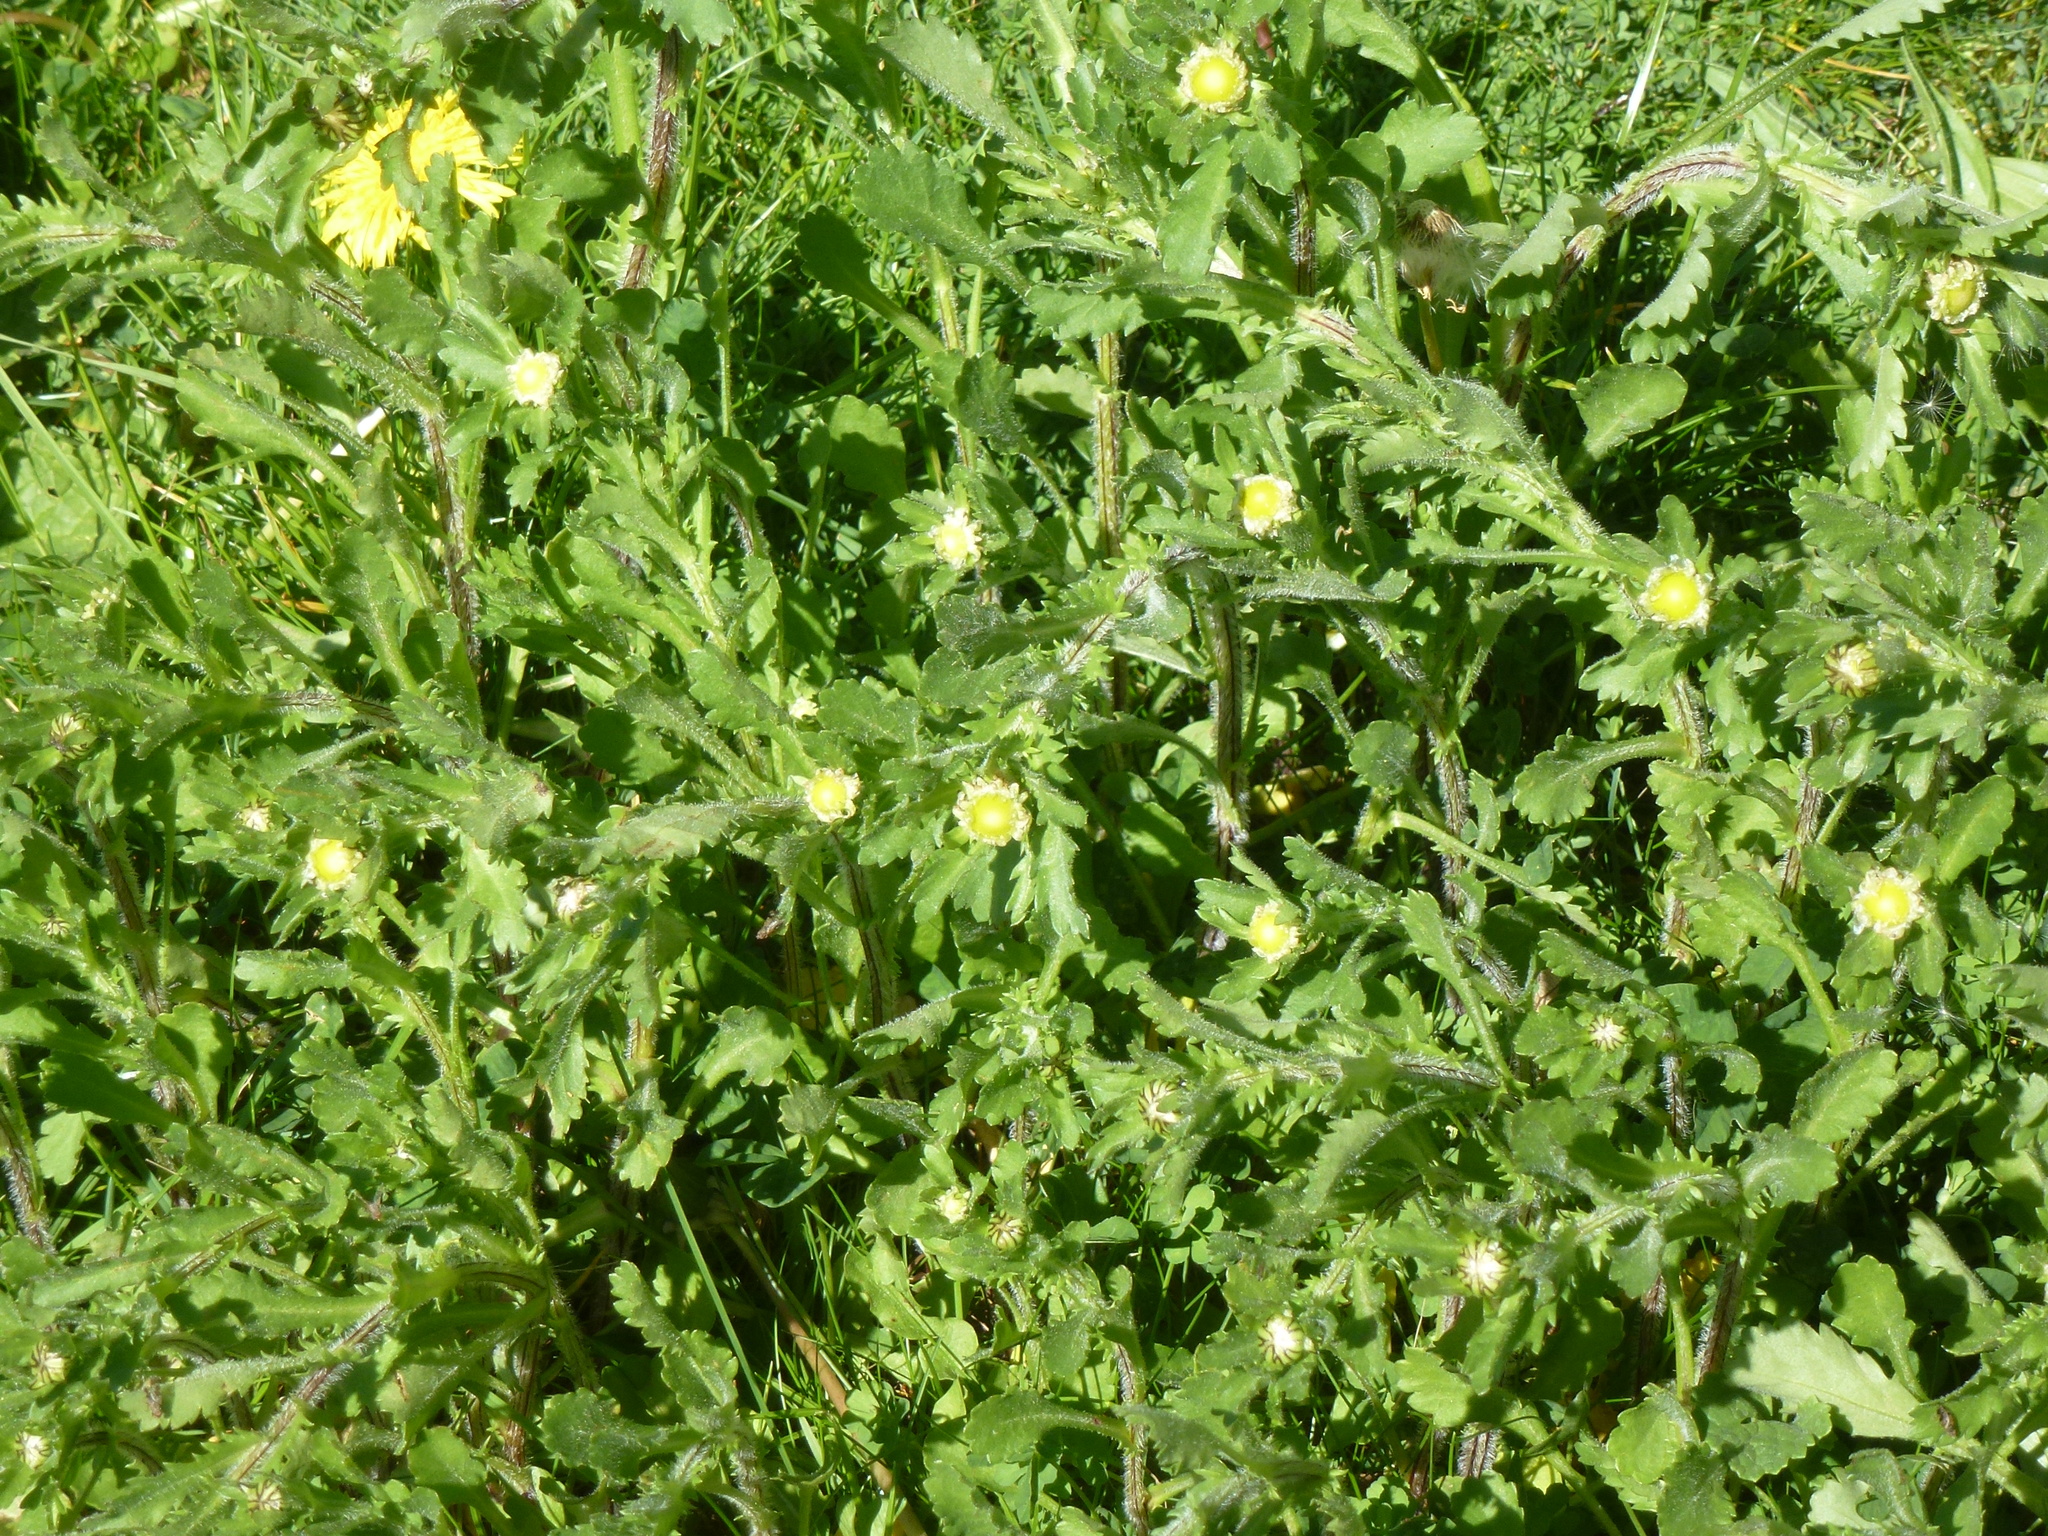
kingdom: Plantae
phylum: Tracheophyta
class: Magnoliopsida
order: Asterales
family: Asteraceae
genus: Leucanthemum
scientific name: Leucanthemum vulgare
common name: Oxeye daisy
